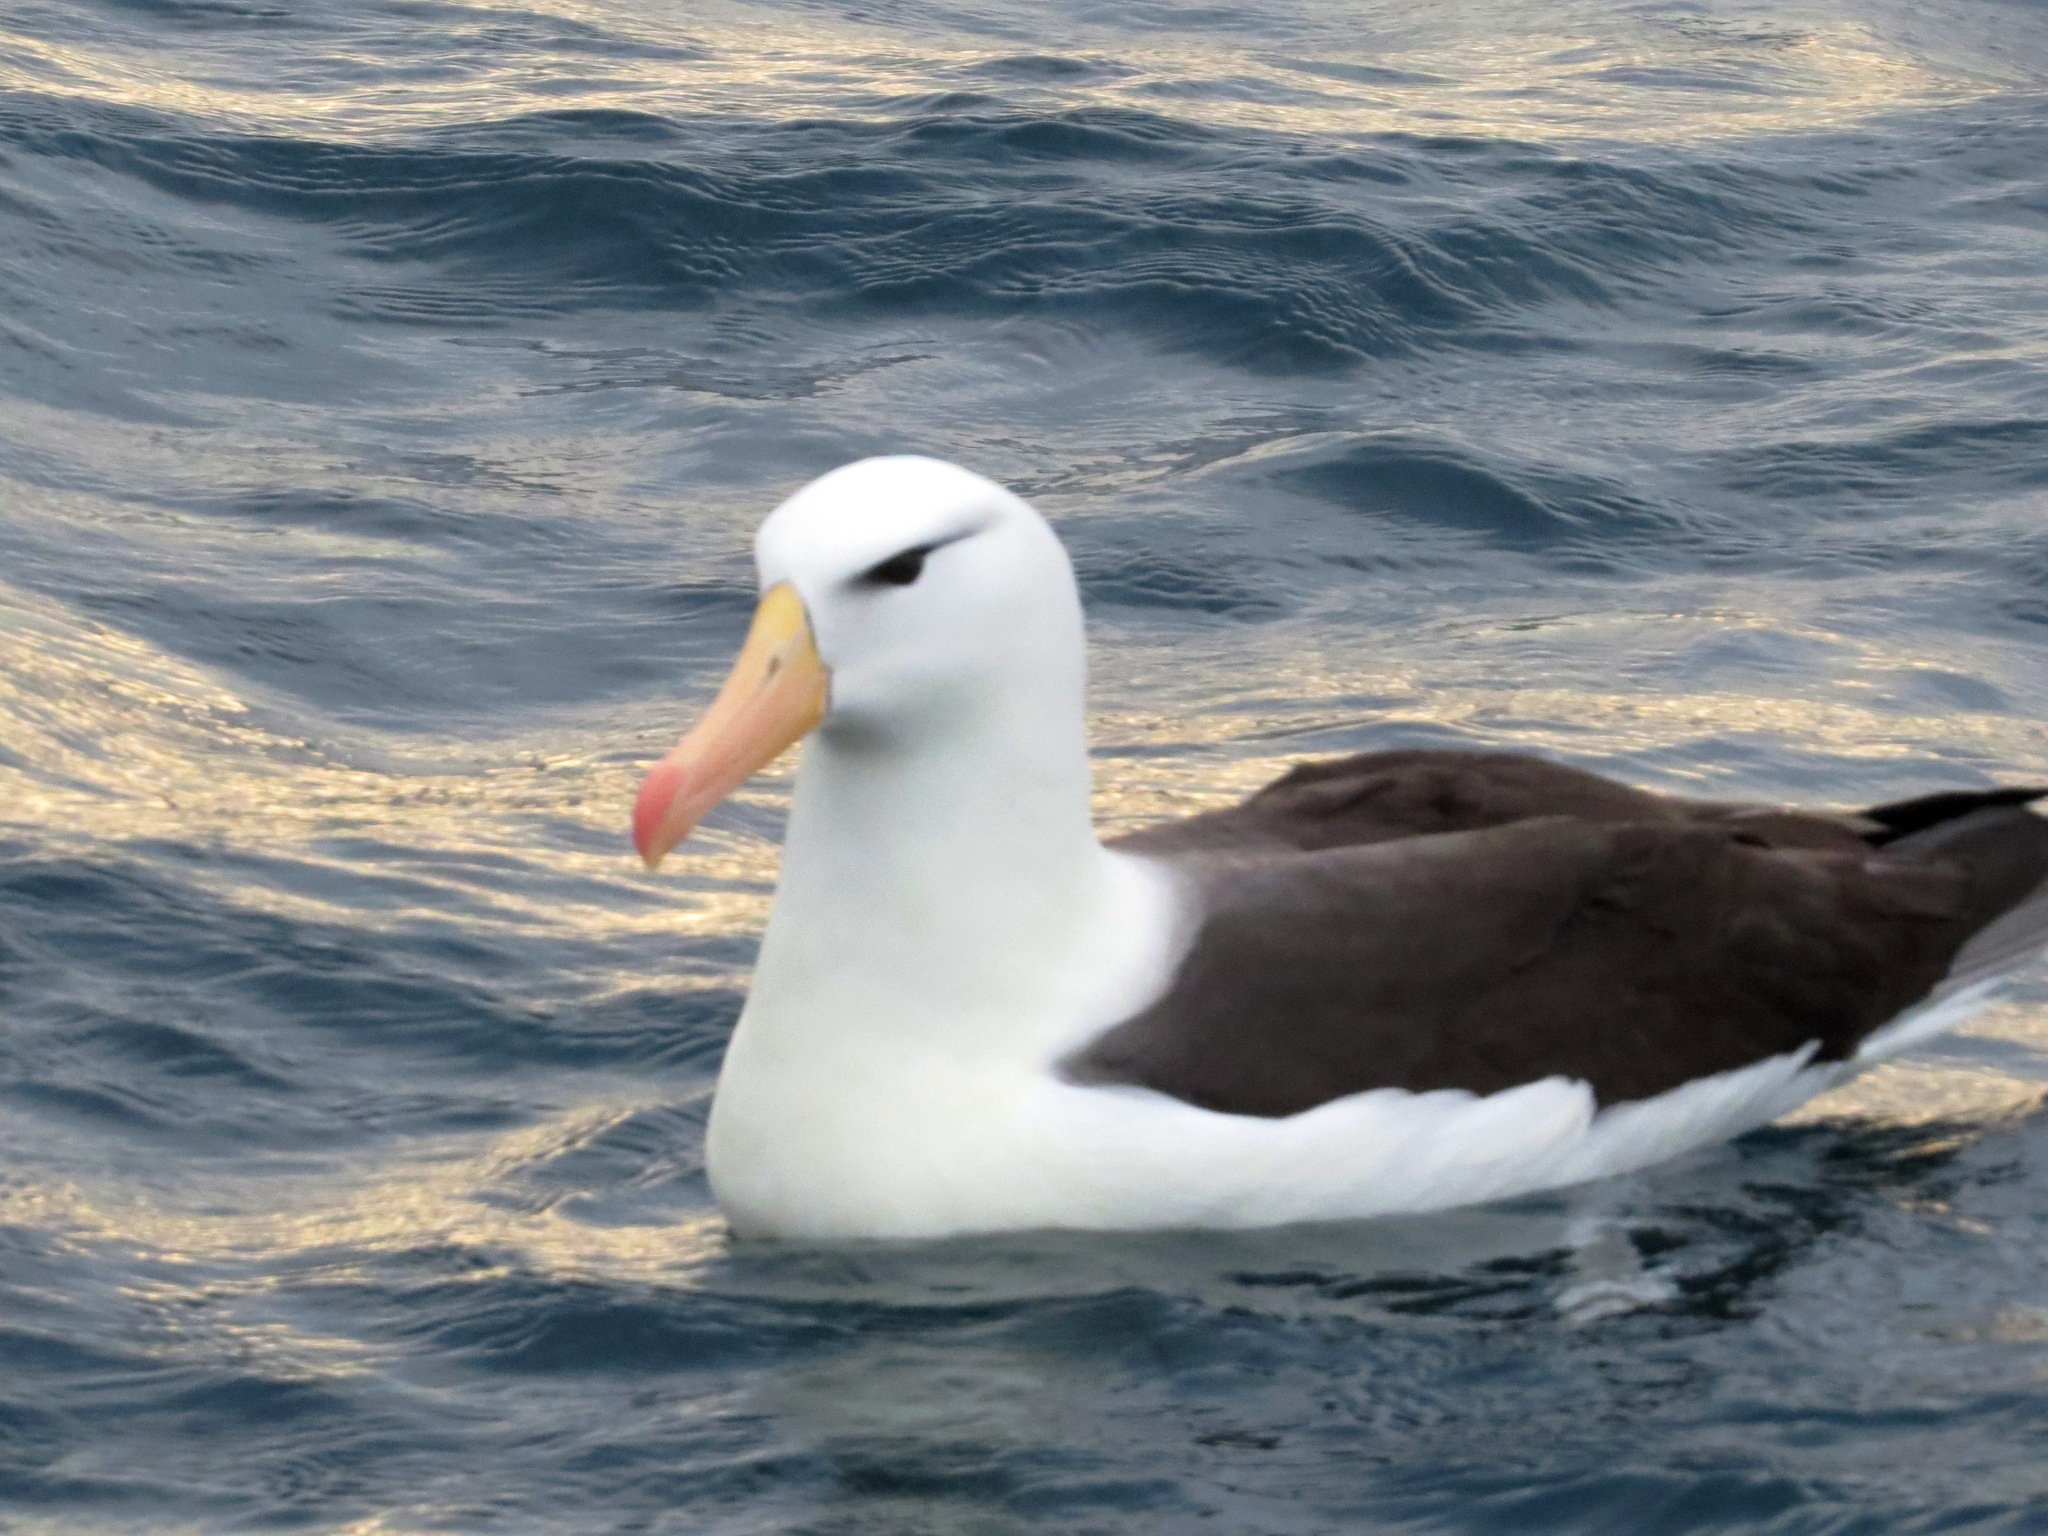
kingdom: Animalia
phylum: Chordata
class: Aves
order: Procellariiformes
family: Diomedeidae
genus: Thalassarche
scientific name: Thalassarche melanophris
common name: Black-browed albatross
